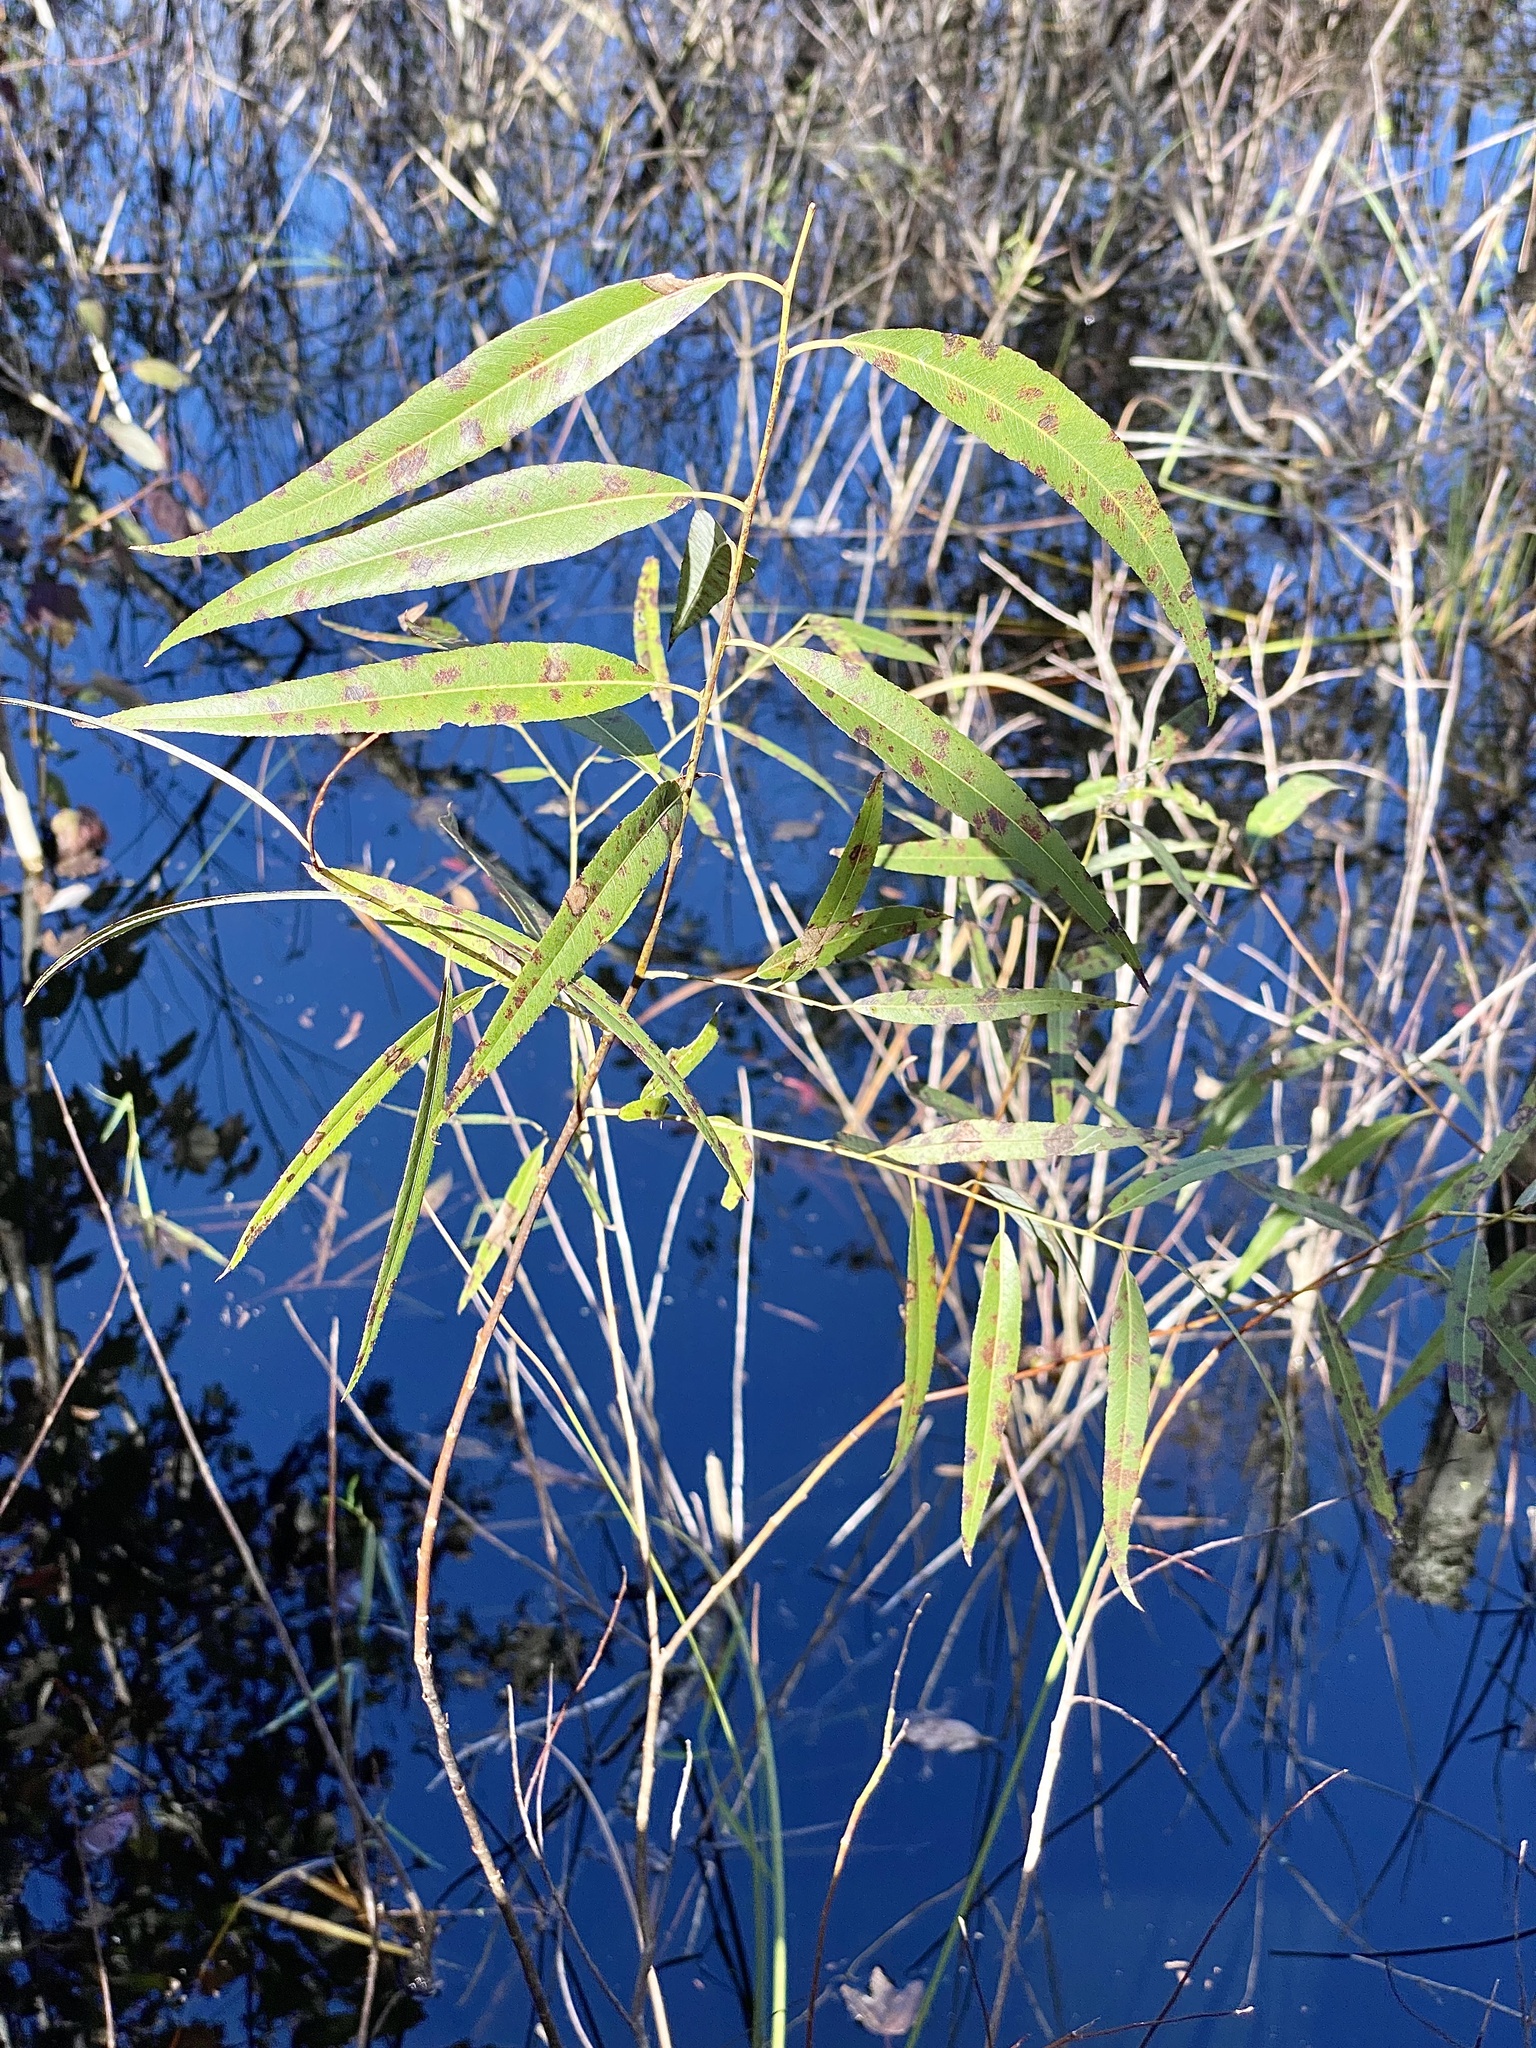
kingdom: Plantae
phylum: Tracheophyta
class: Magnoliopsida
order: Malpighiales
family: Salicaceae
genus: Salix
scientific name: Salix caroliniana
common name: Carolina willow
